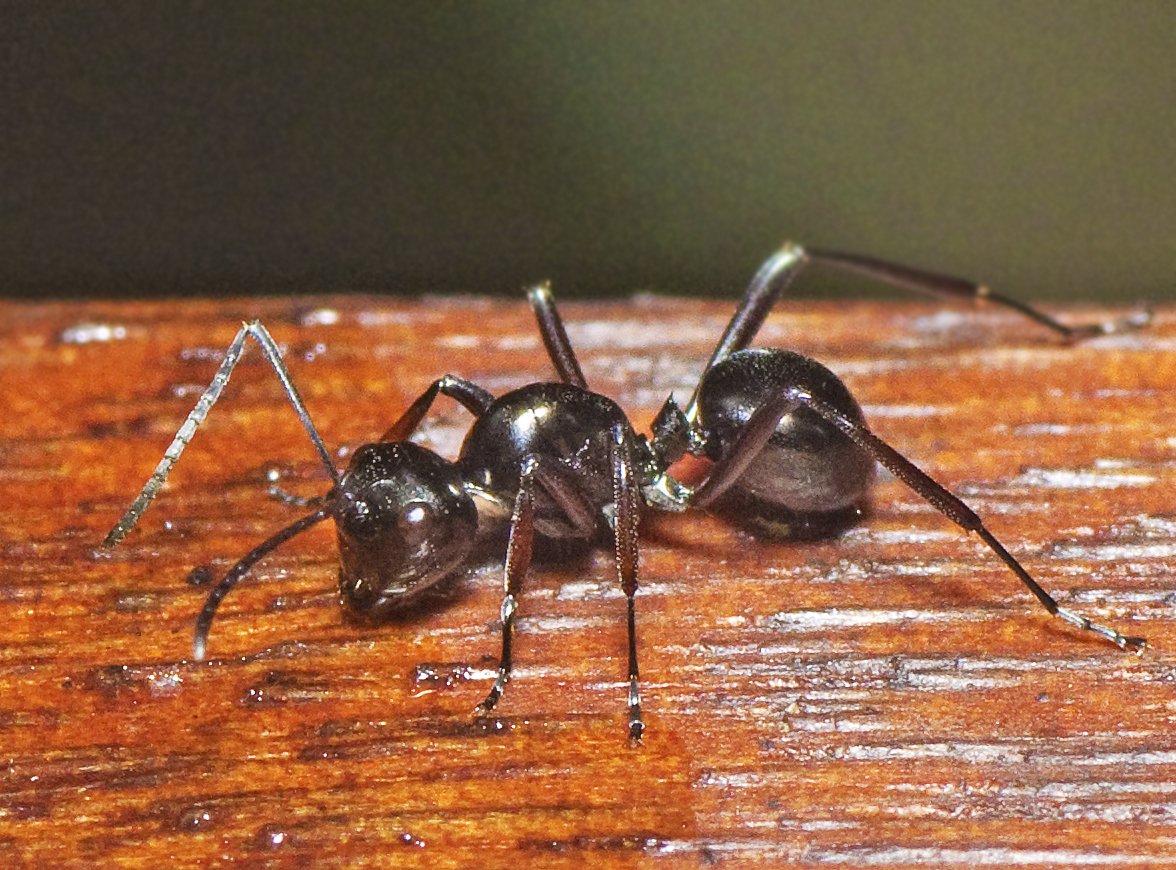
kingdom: Animalia
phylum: Arthropoda
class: Insecta
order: Hymenoptera
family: Formicidae
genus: Polyrhachis
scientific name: Polyrhachis robsoni
